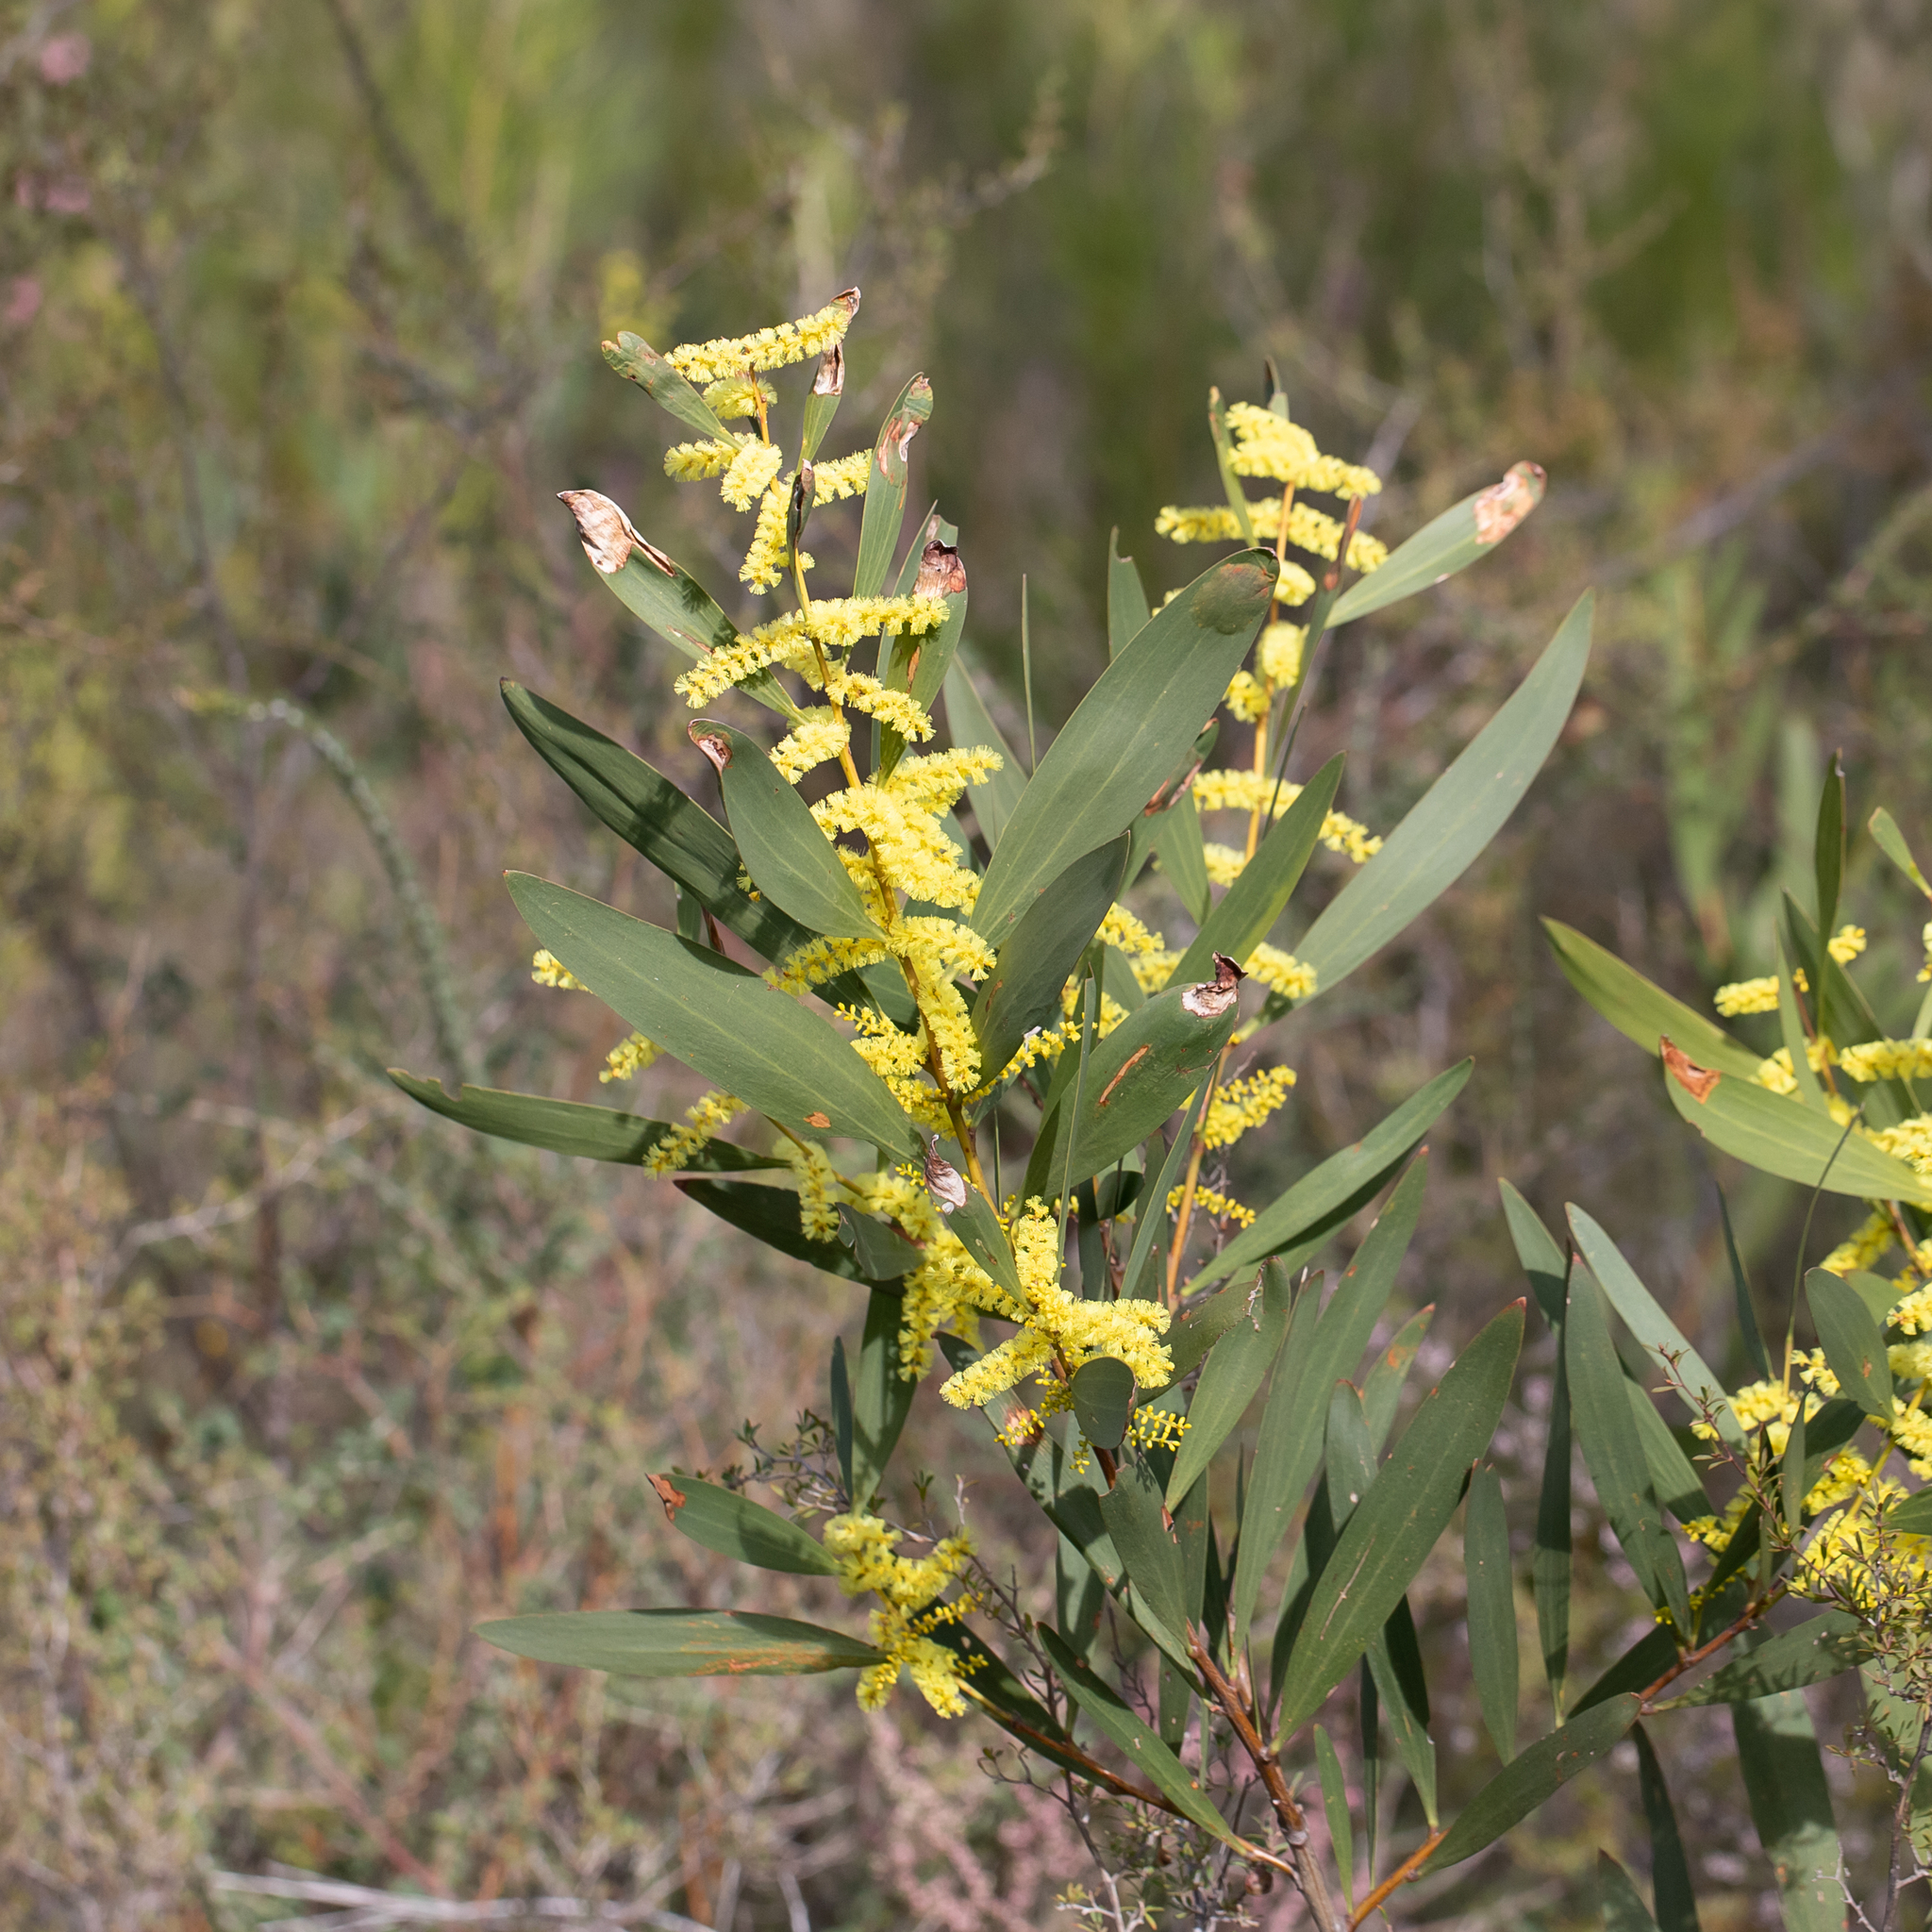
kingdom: Plantae
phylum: Tracheophyta
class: Magnoliopsida
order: Fabales
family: Fabaceae
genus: Acacia
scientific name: Acacia longifolia
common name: Sydney golden wattle
